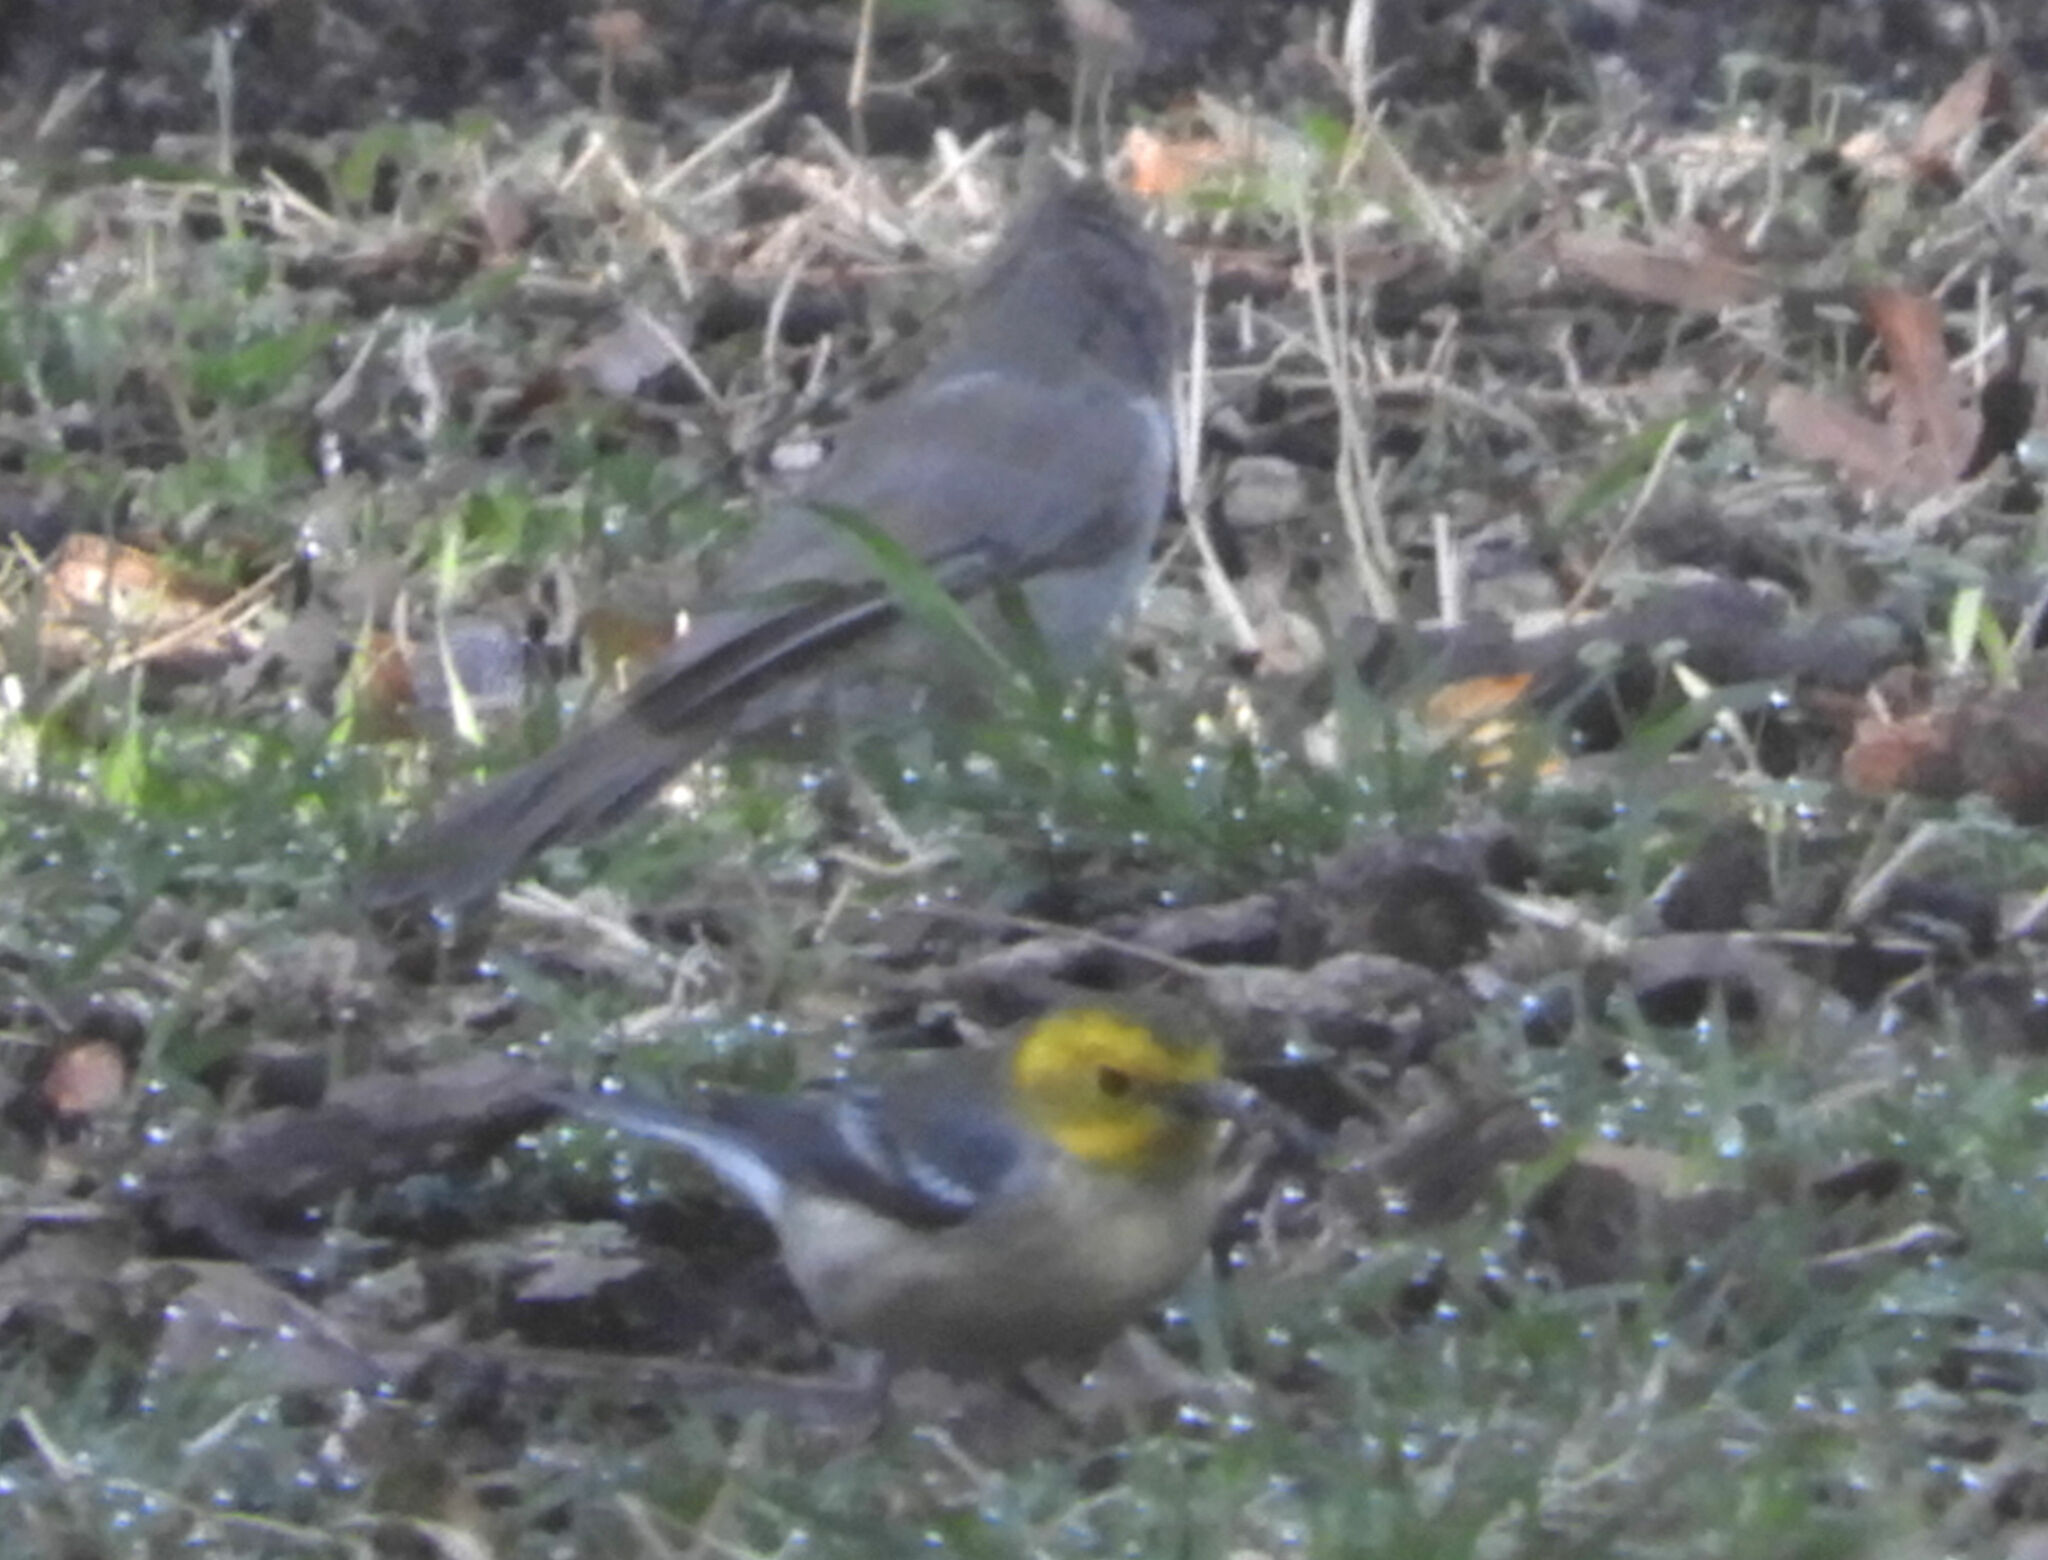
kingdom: Animalia
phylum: Chordata
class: Aves
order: Passeriformes
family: Parulidae
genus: Setophaga
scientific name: Setophaga occidentalis
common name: Hermit warbler
